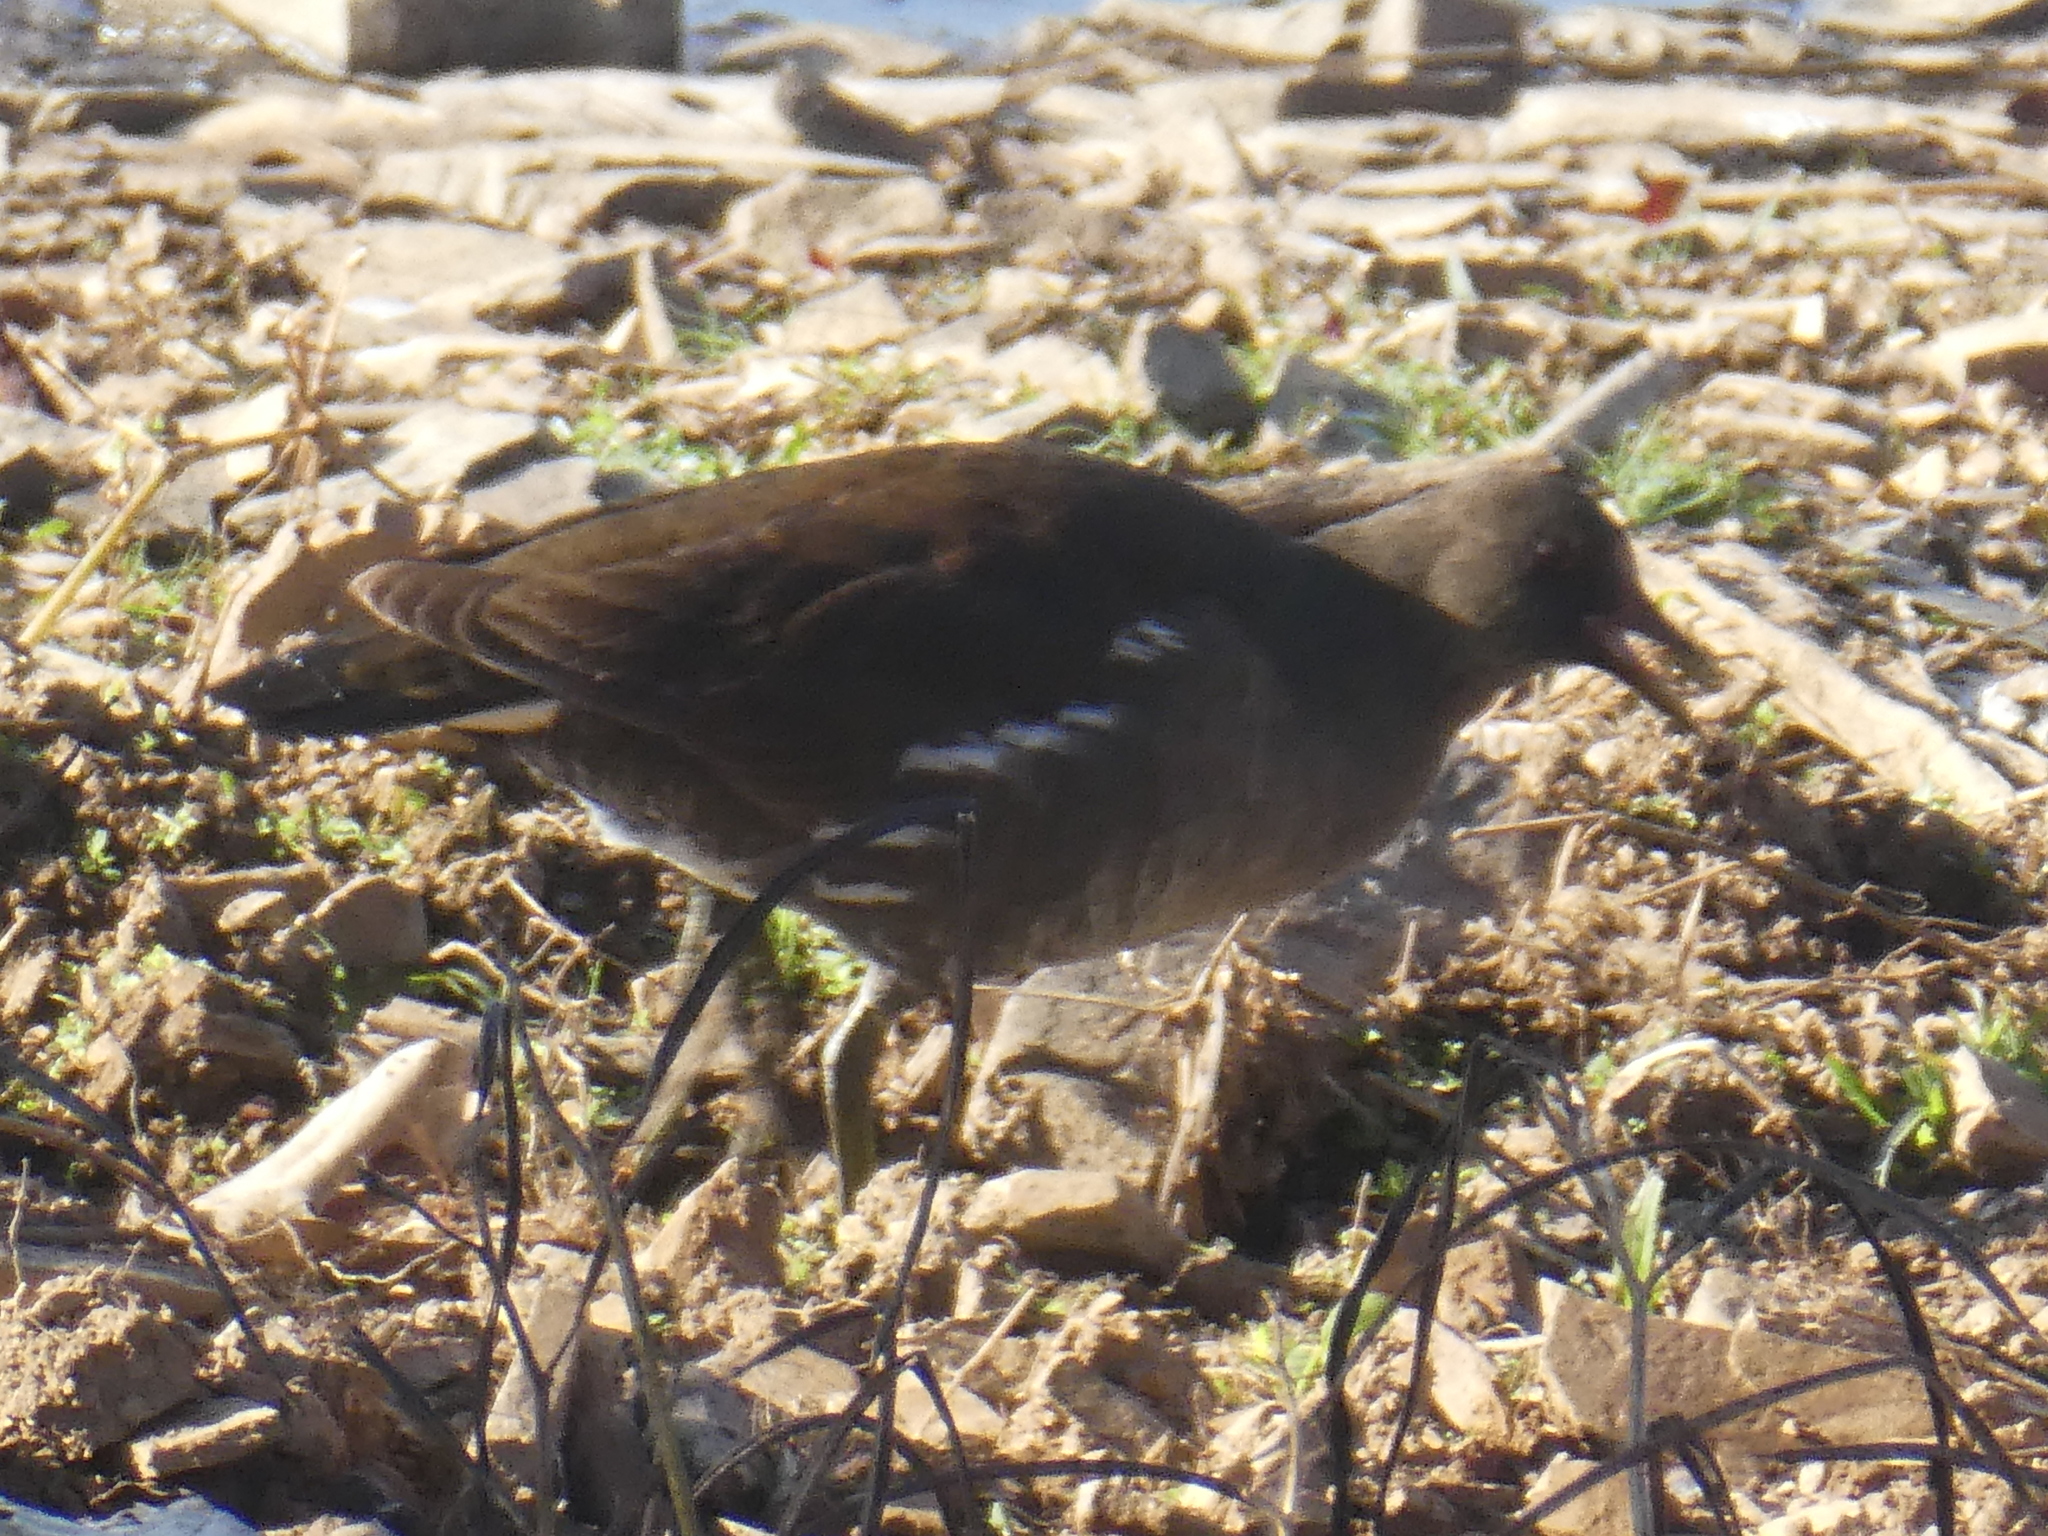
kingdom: Animalia
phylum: Chordata
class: Aves
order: Gruiformes
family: Rallidae
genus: Gallinula
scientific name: Gallinula chloropus
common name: Common moorhen
